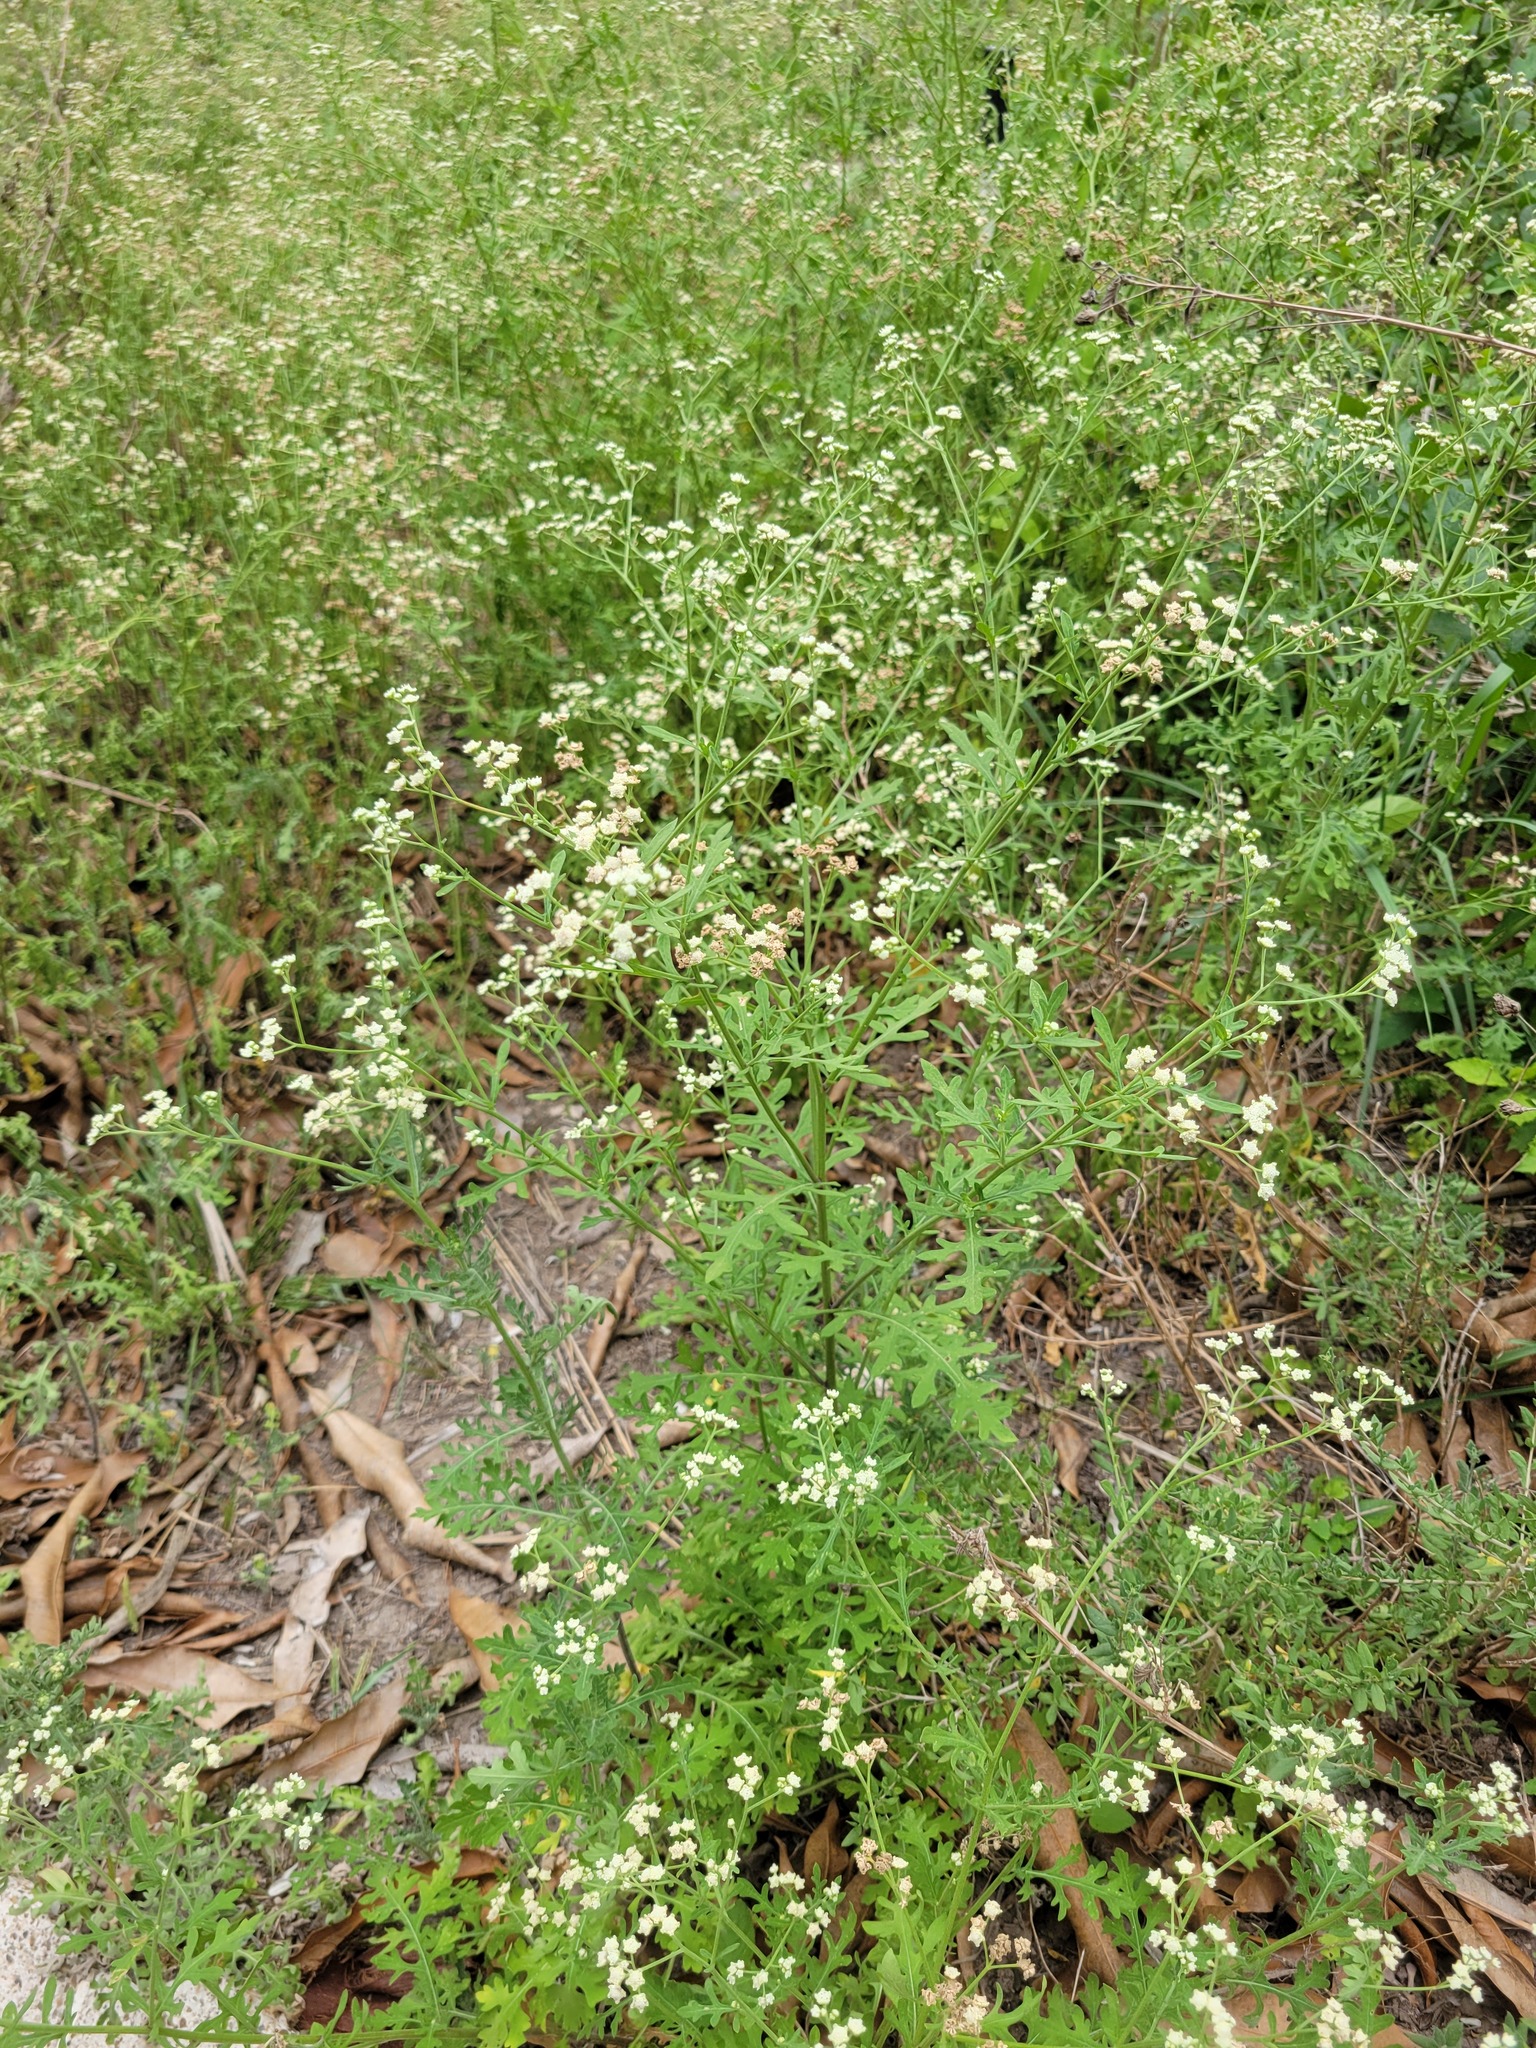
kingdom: Plantae
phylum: Tracheophyta
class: Magnoliopsida
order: Asterales
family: Asteraceae
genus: Parthenium
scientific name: Parthenium hysterophorus
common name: Santa maria feverfew
